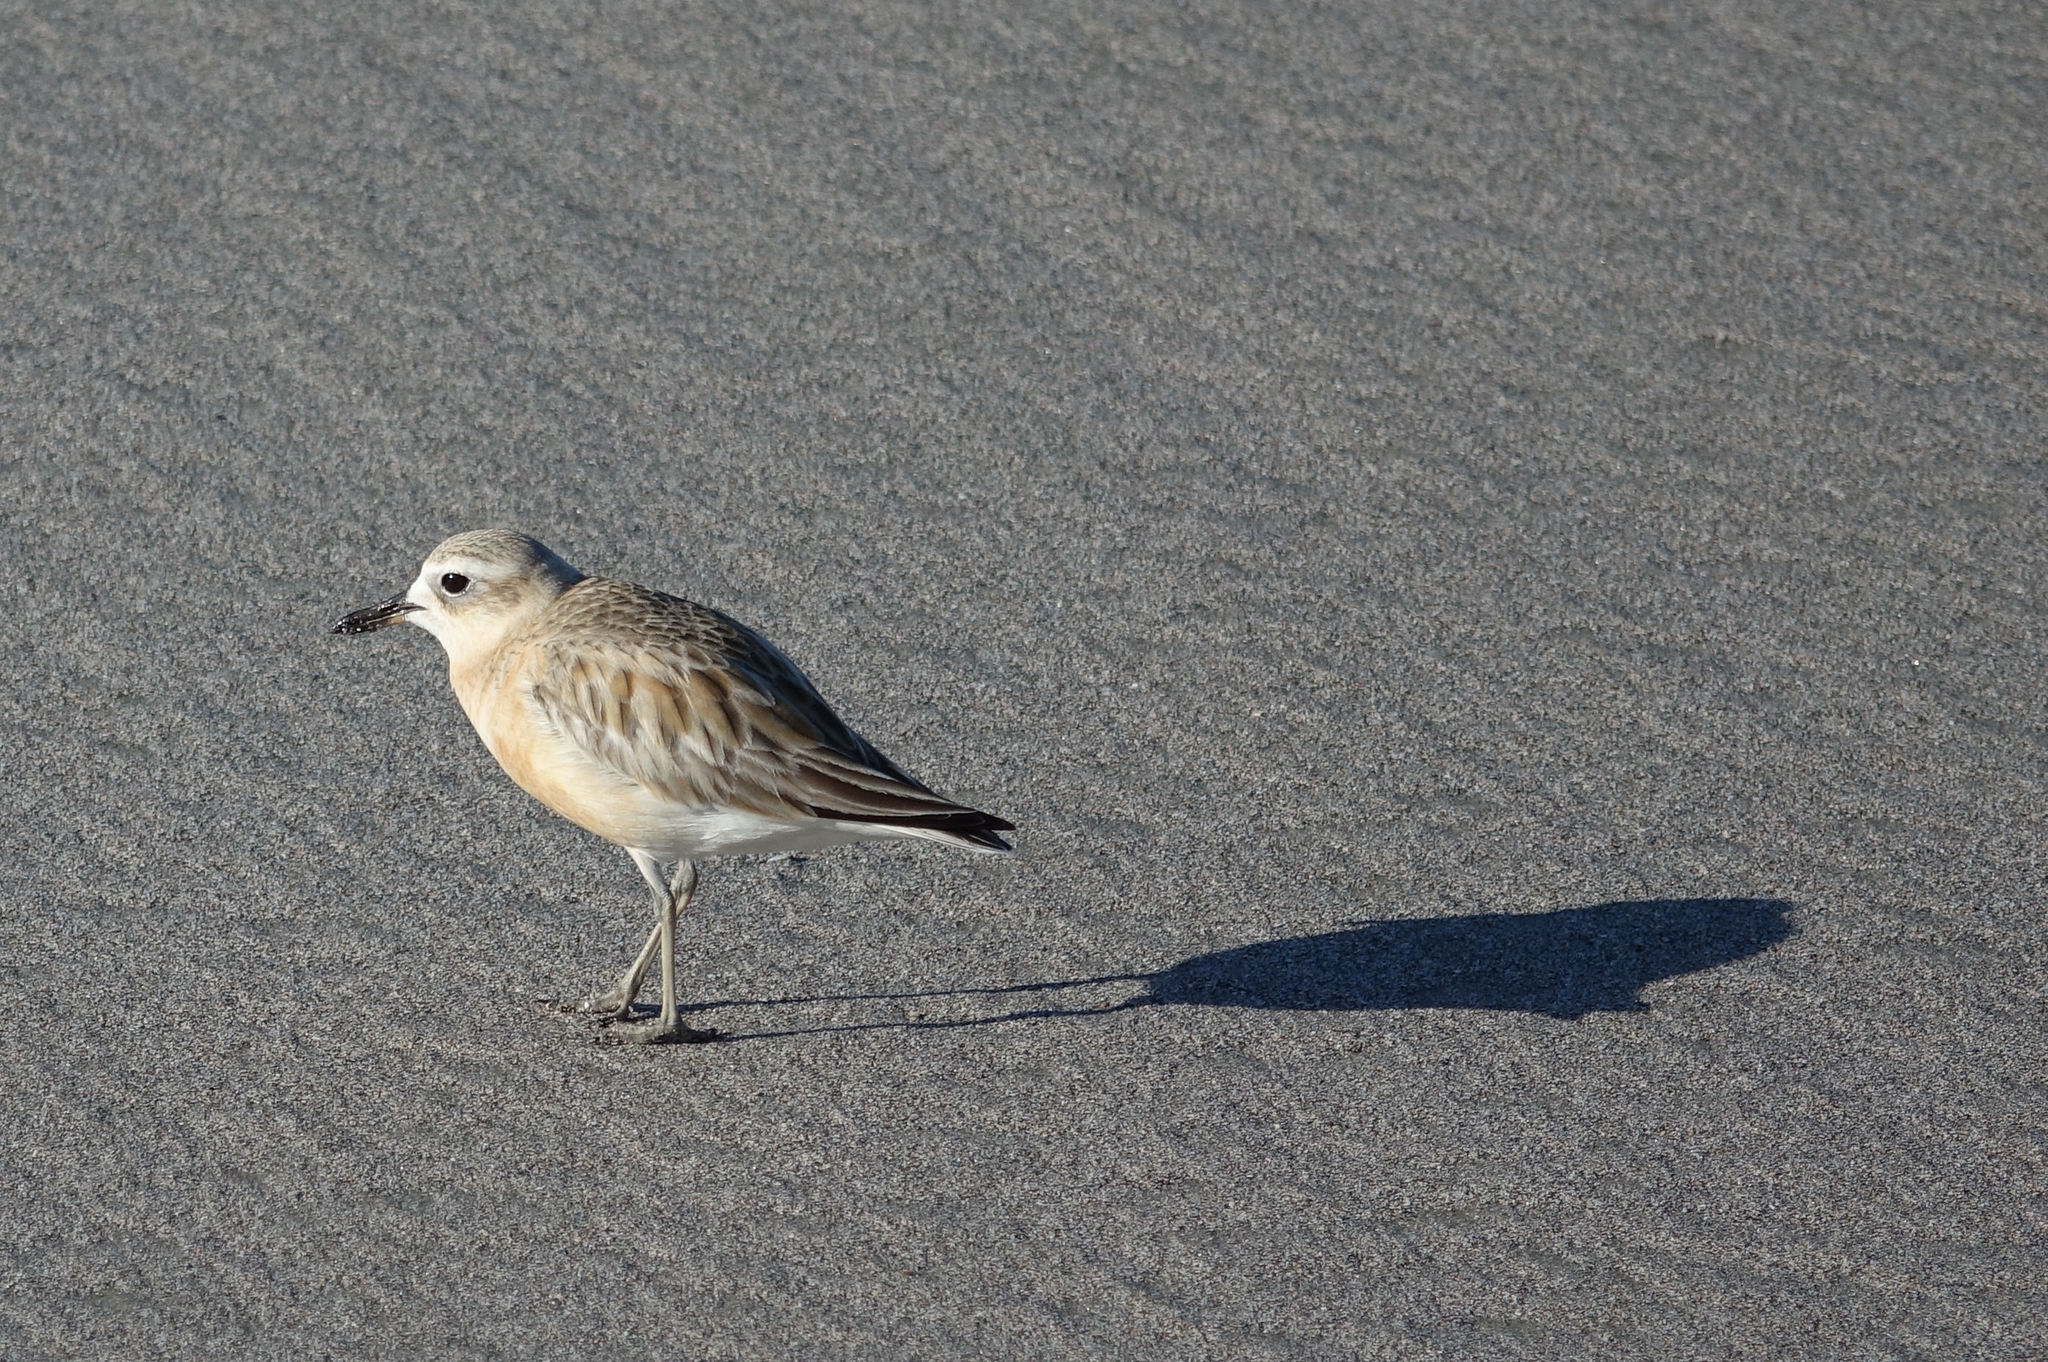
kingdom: Animalia
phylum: Chordata
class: Aves
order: Charadriiformes
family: Charadriidae
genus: Anarhynchus
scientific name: Anarhynchus
